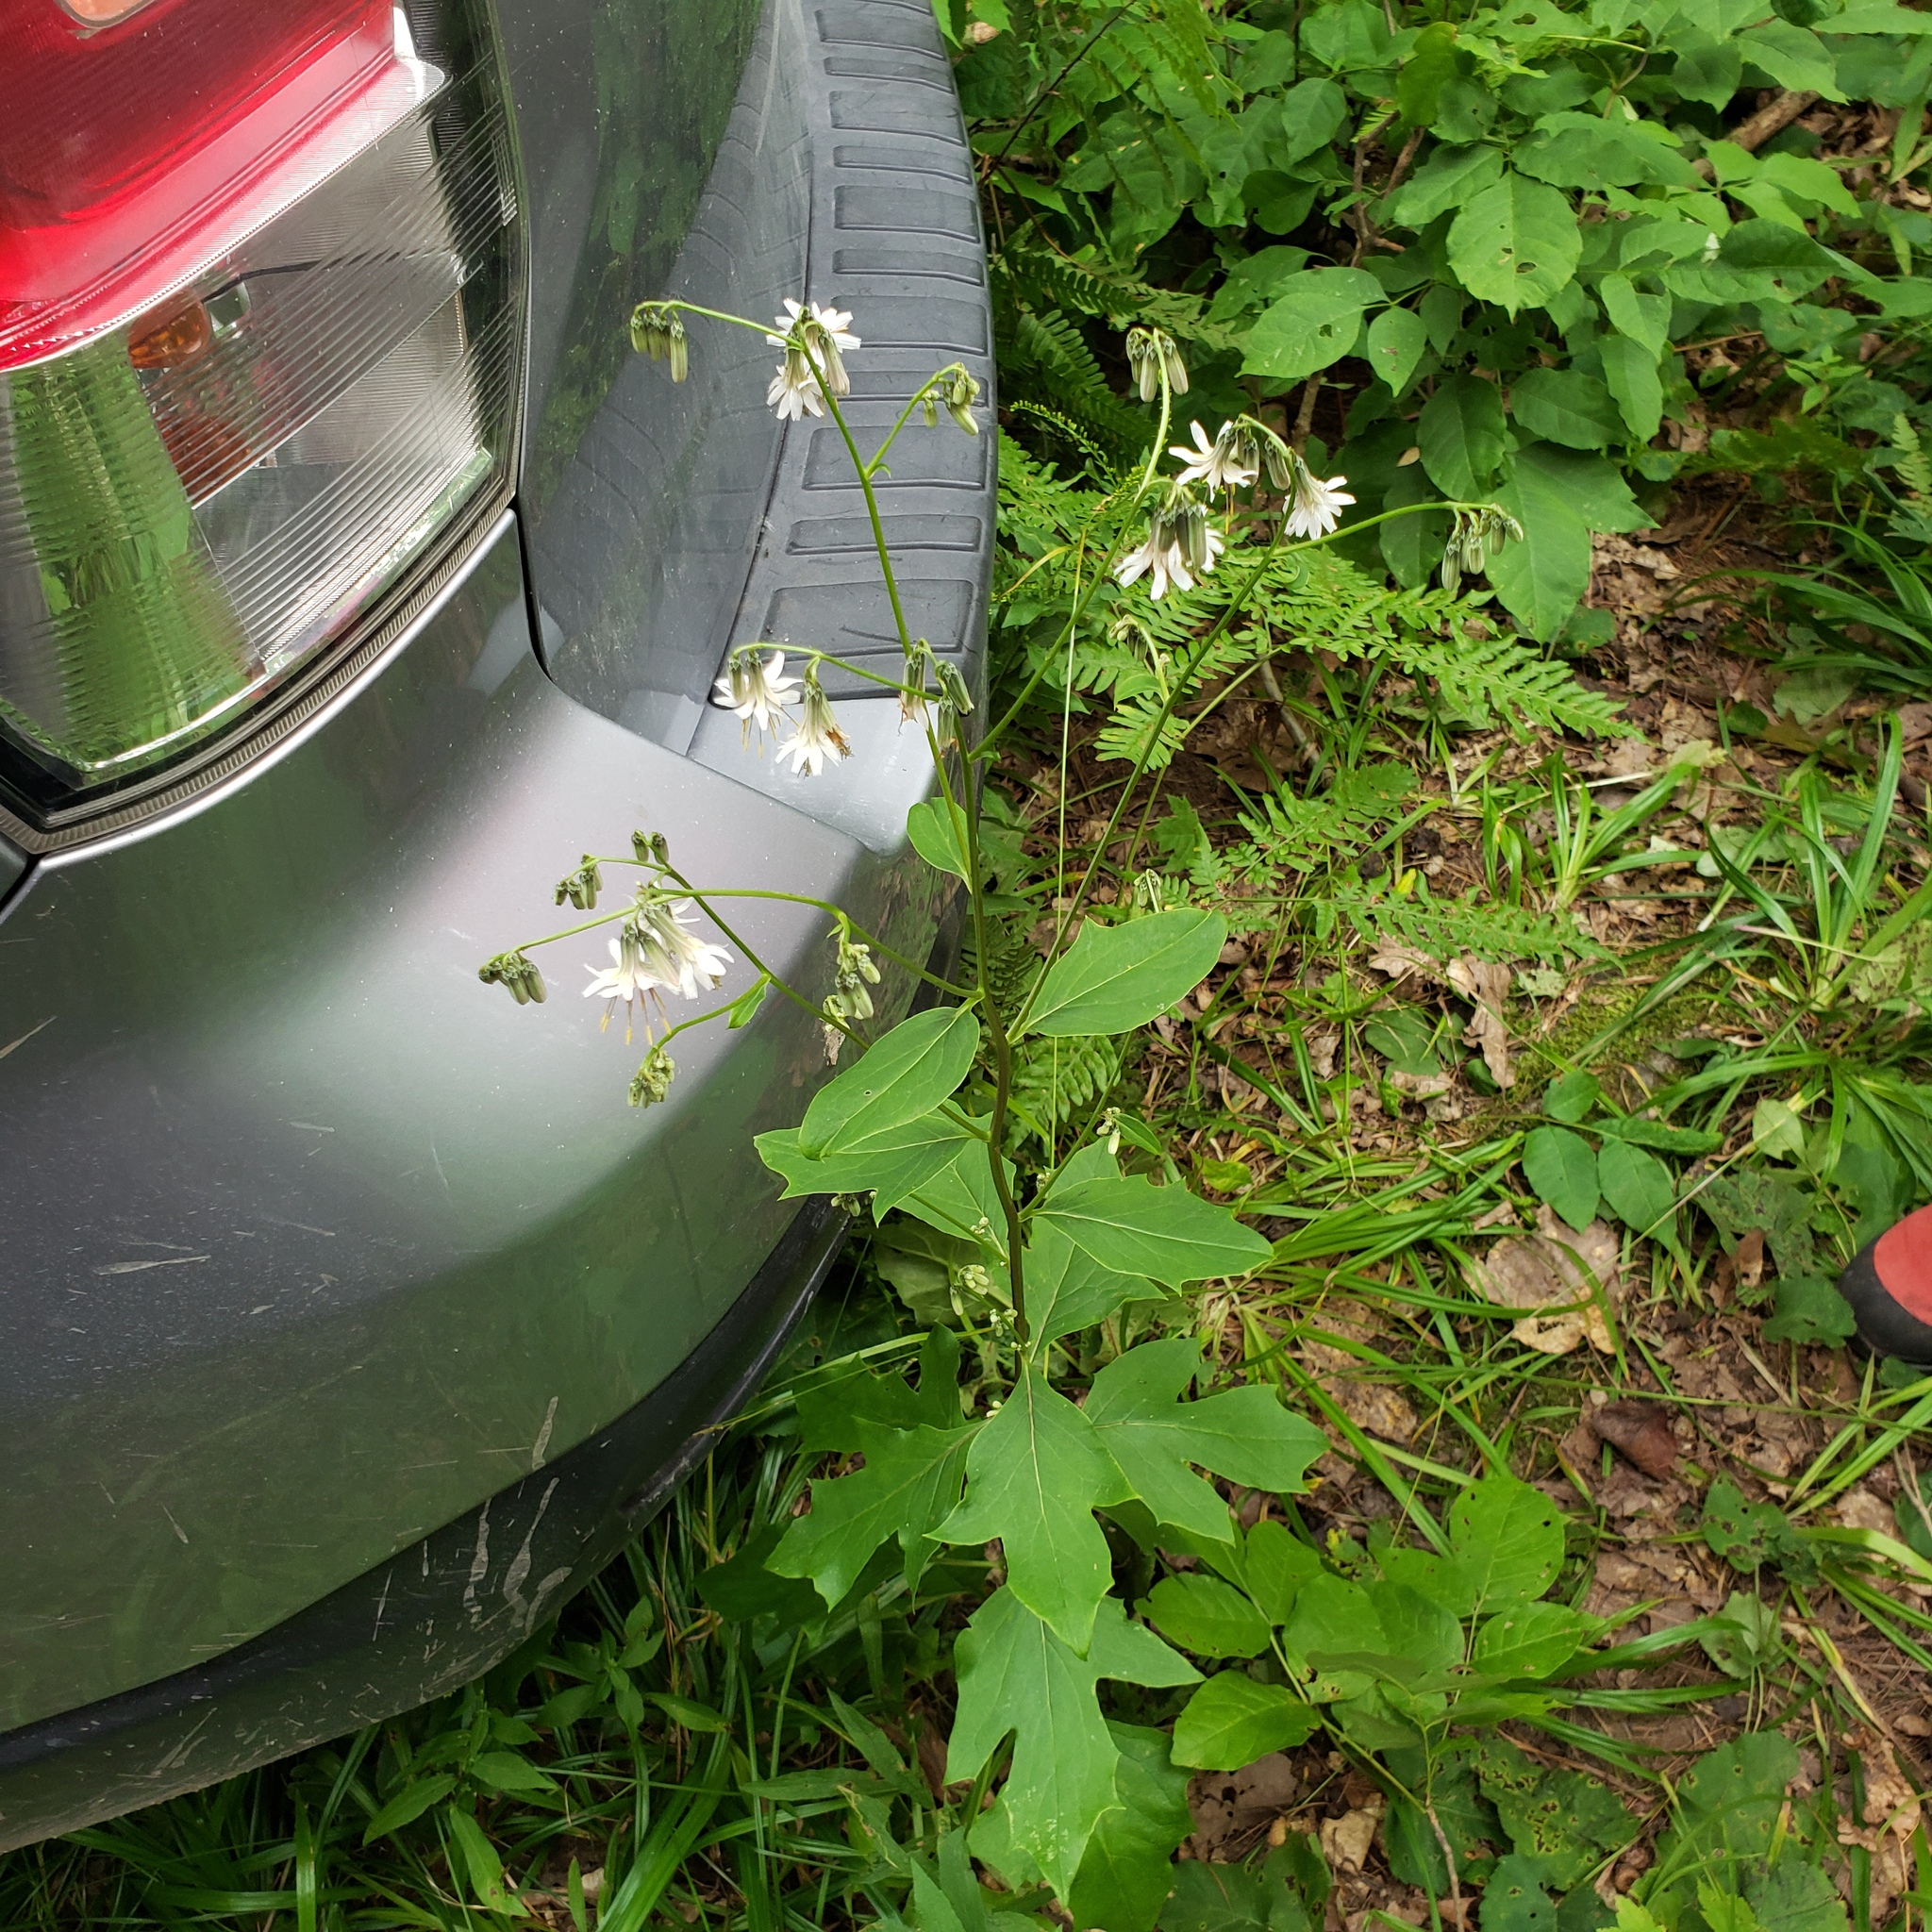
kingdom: Plantae
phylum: Tracheophyta
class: Magnoliopsida
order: Asterales
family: Asteraceae
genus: Nabalus
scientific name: Nabalus albus
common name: White rattlesnakeroot
